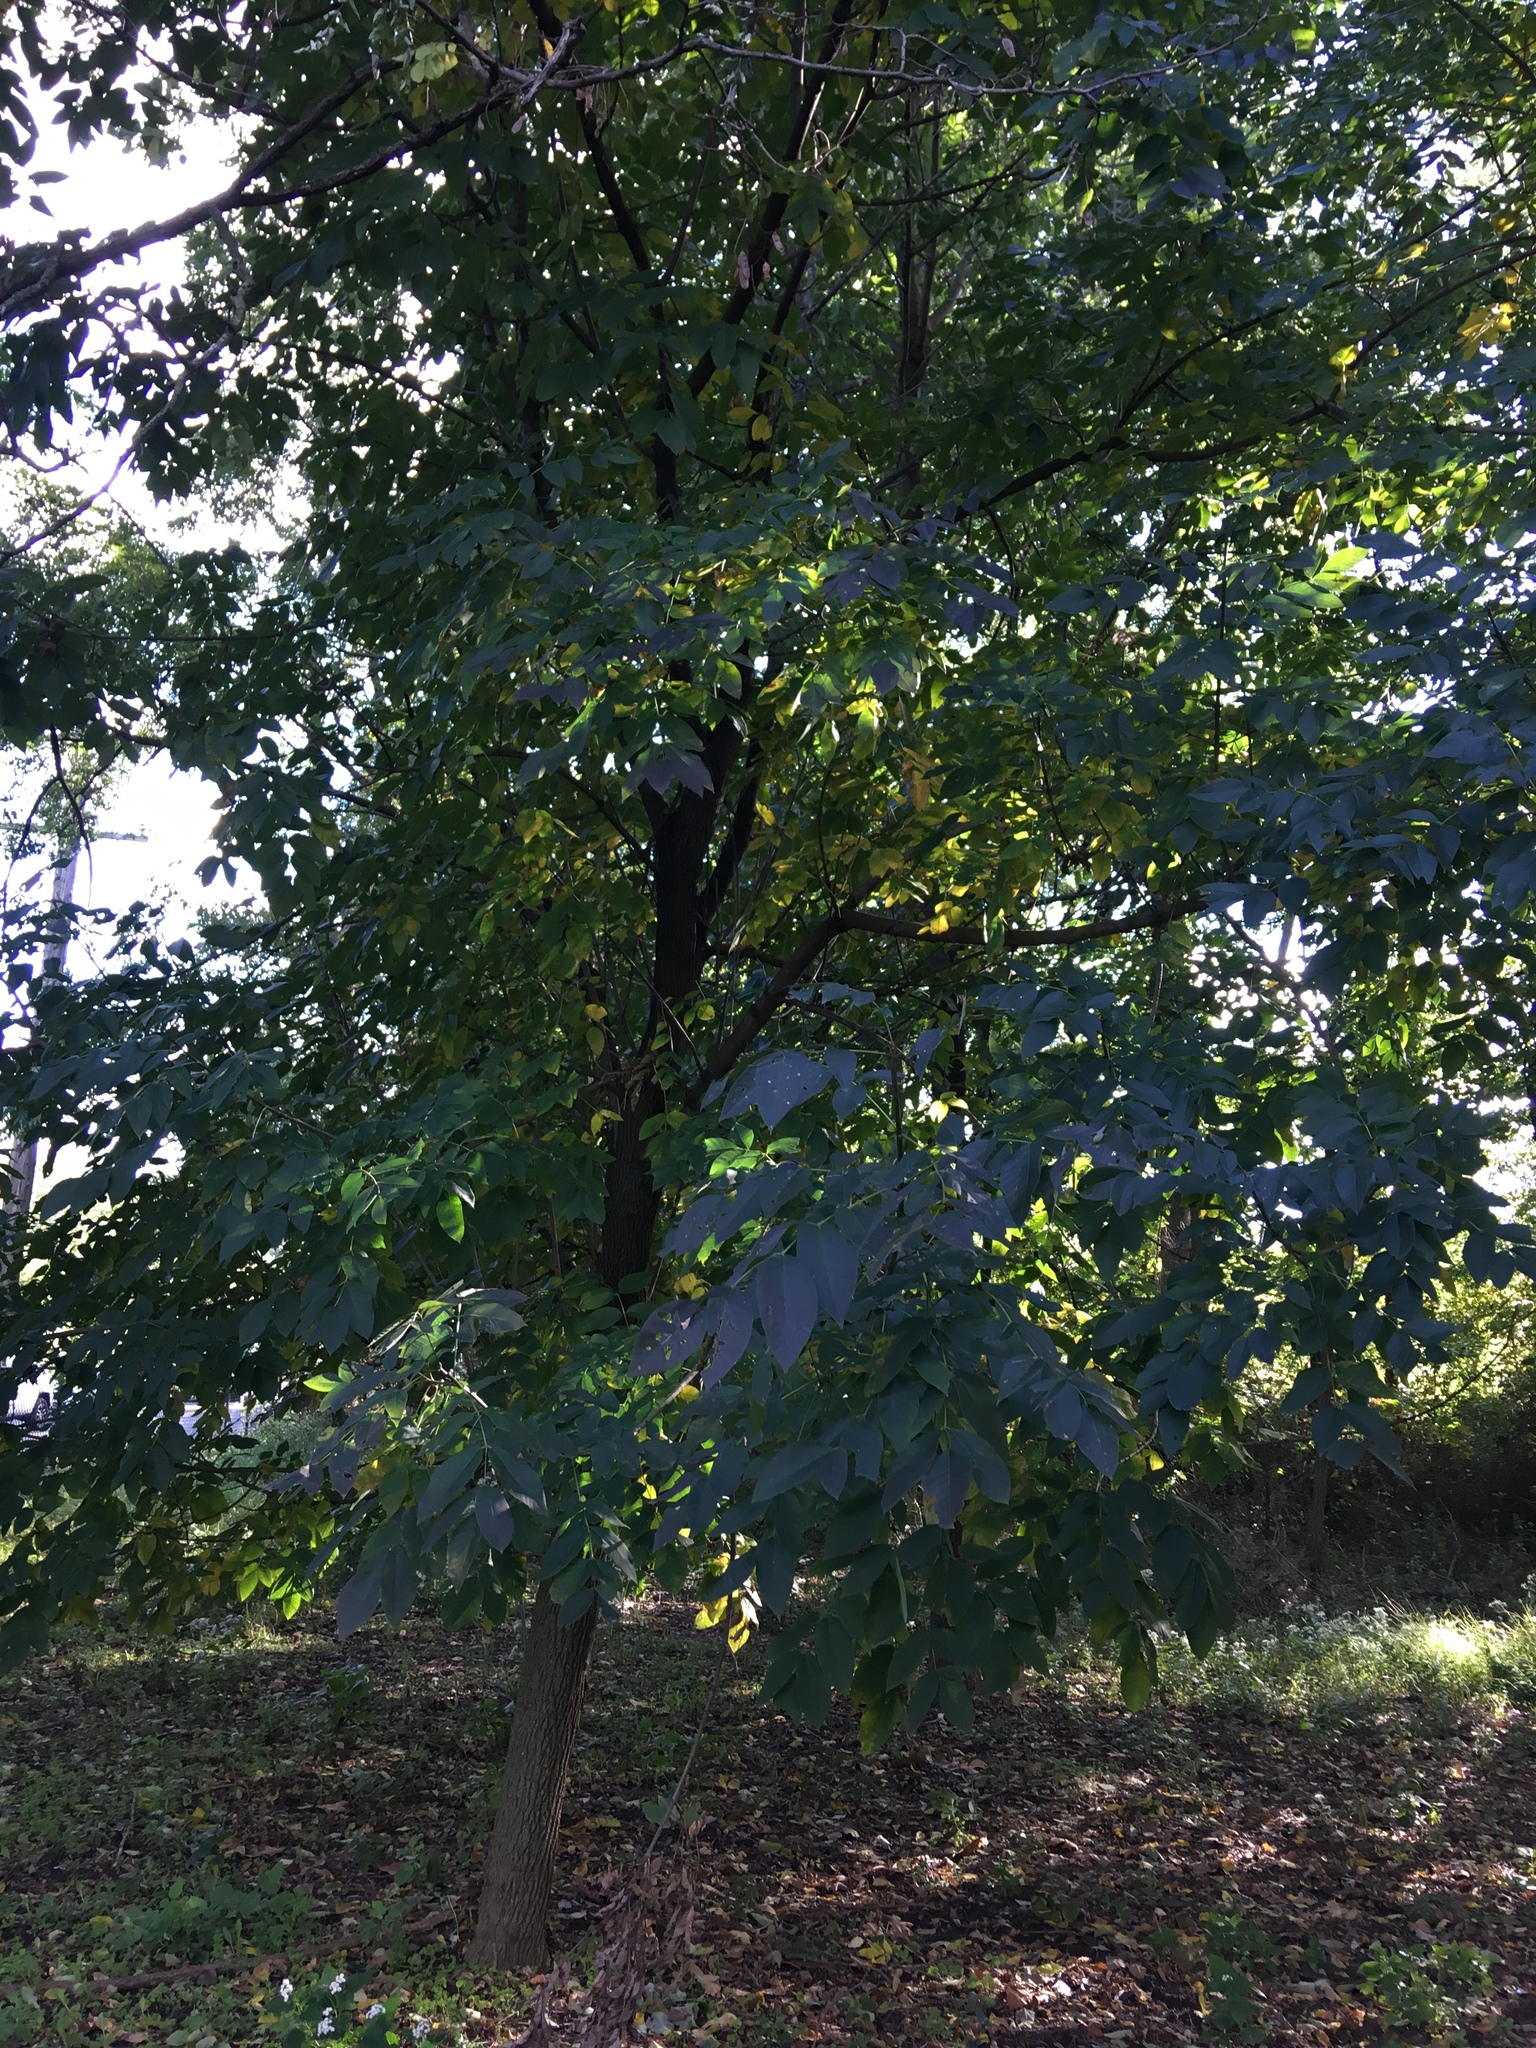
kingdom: Plantae
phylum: Tracheophyta
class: Magnoliopsida
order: Lamiales
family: Oleaceae
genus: Fraxinus
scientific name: Fraxinus americana
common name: White ash
